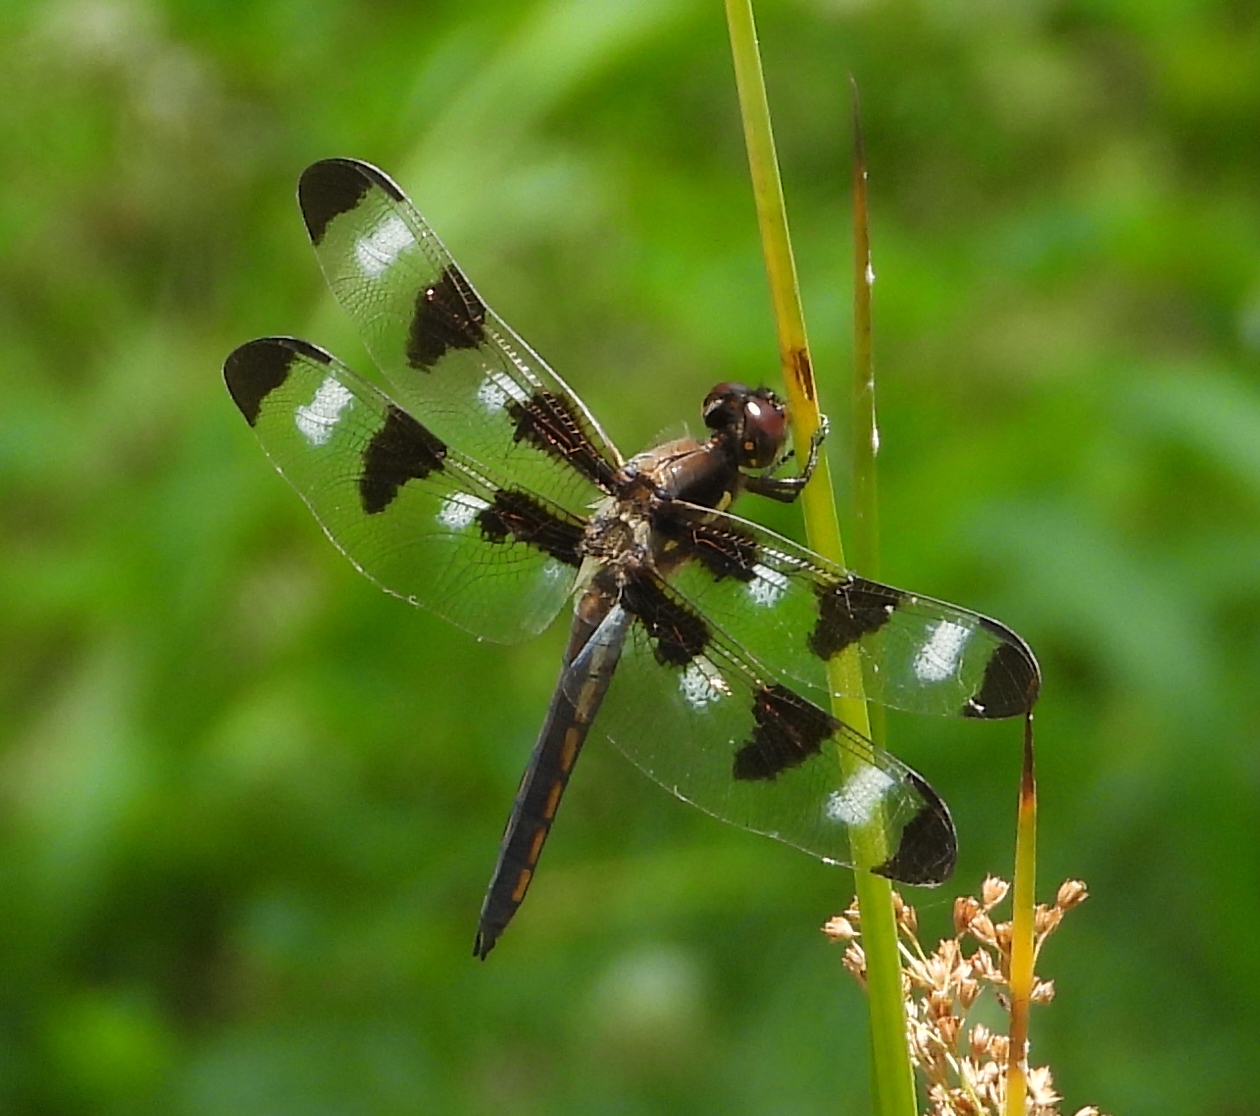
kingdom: Animalia
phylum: Arthropoda
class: Insecta
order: Odonata
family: Libellulidae
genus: Libellula
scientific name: Libellula pulchella
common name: Twelve-spotted skimmer
